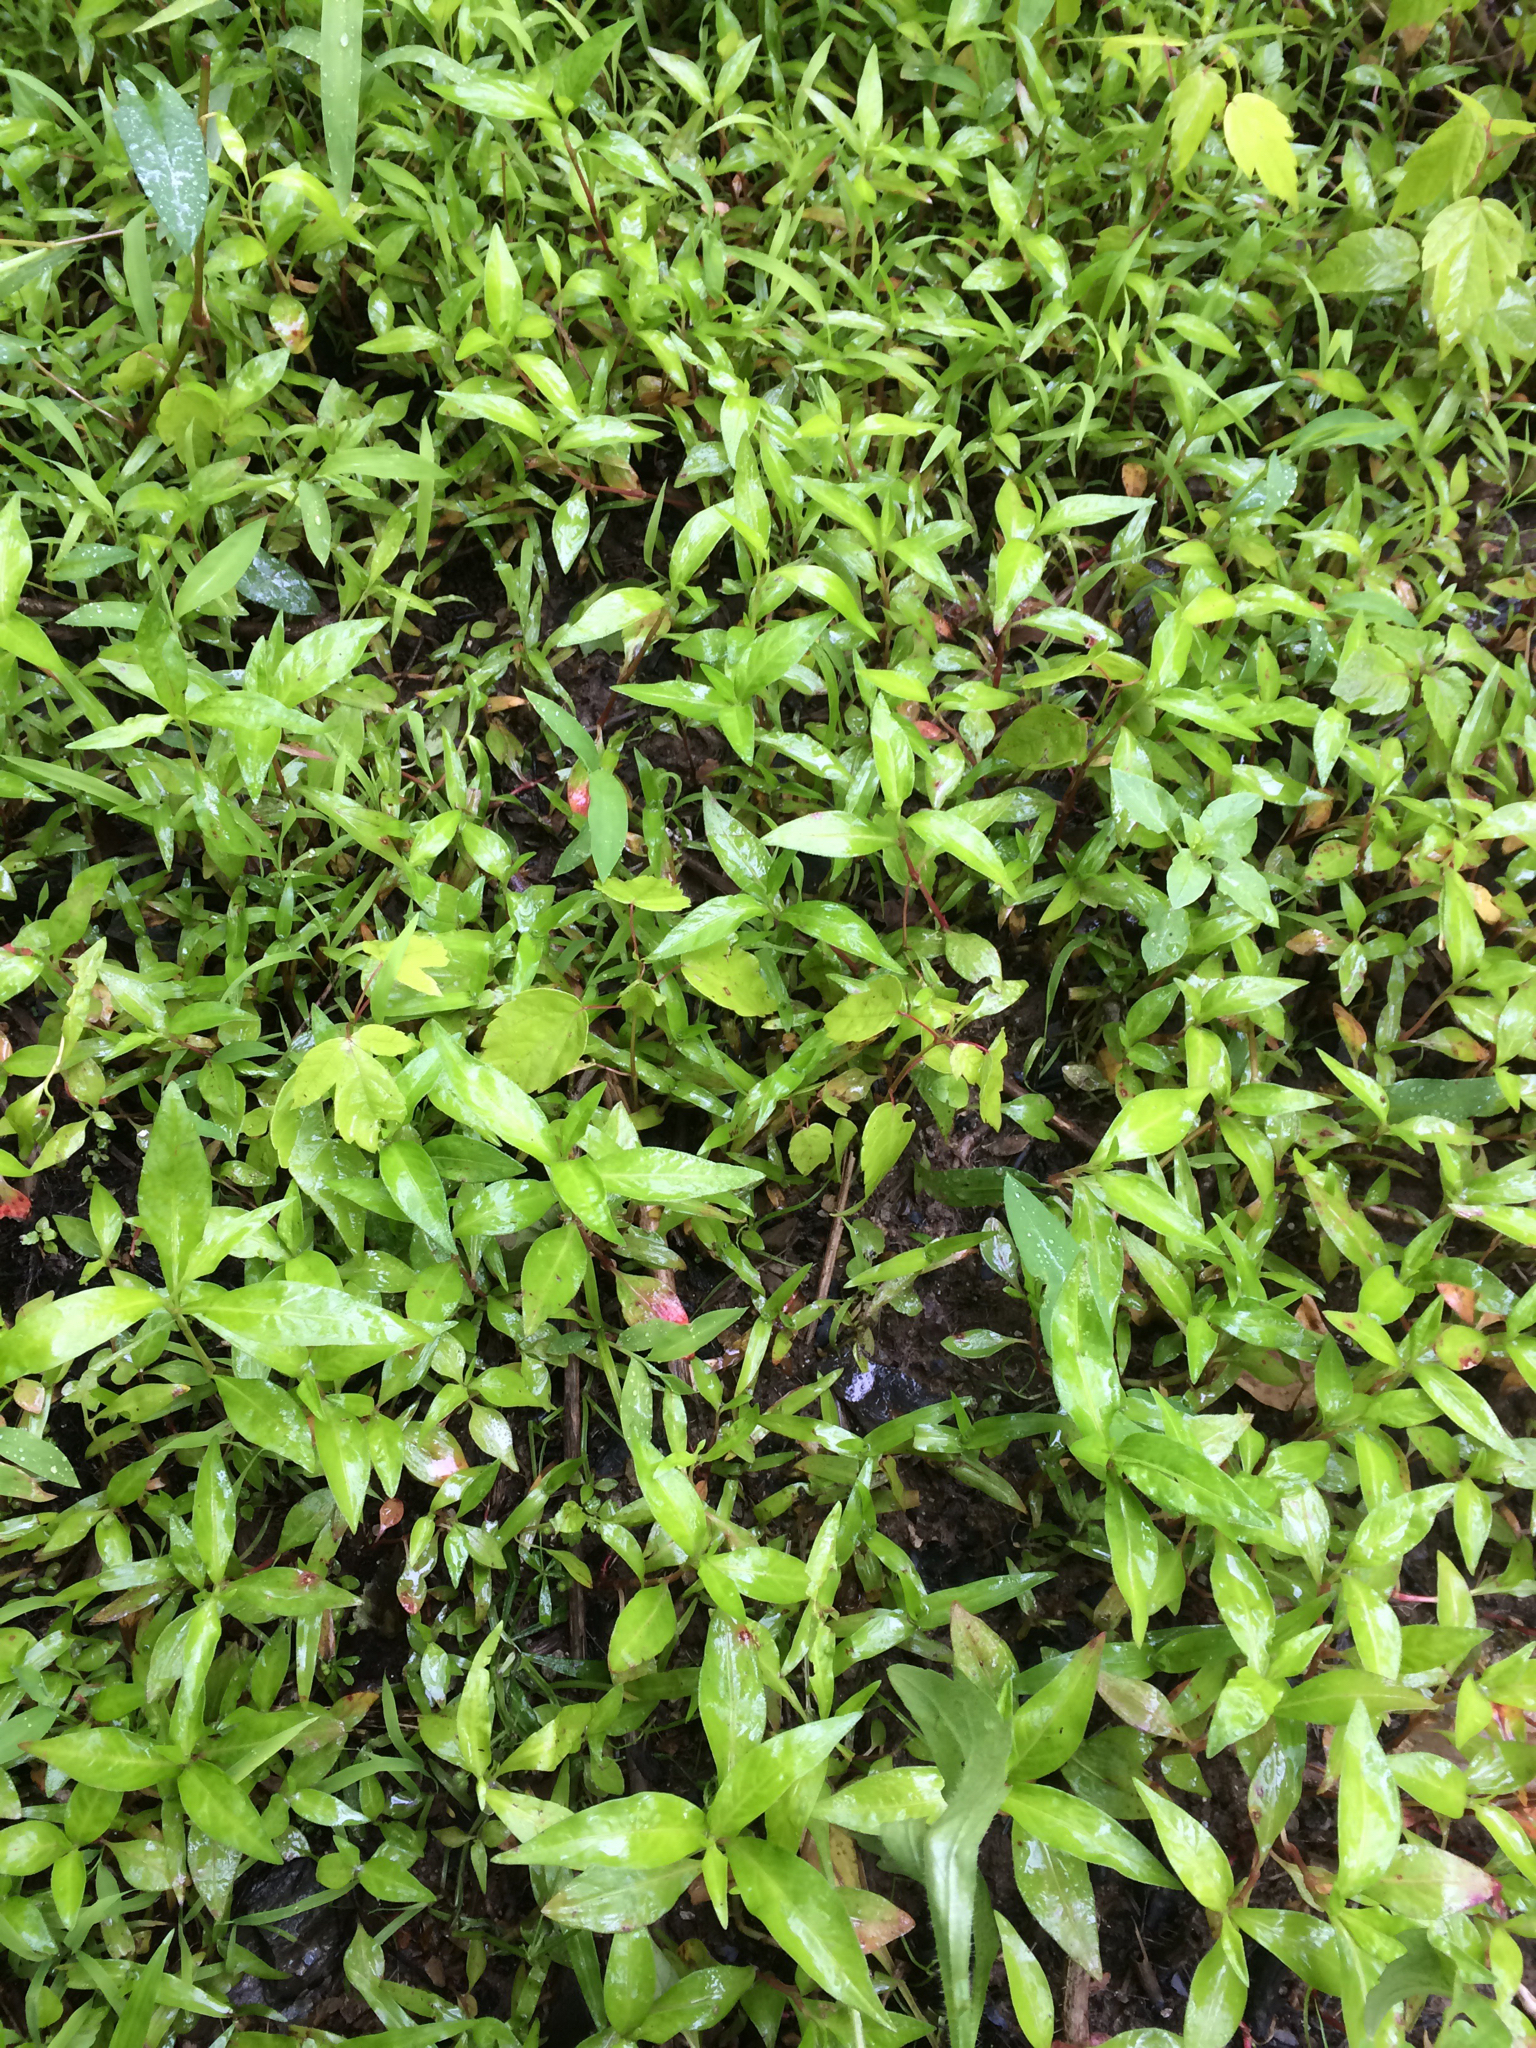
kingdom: Plantae
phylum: Tracheophyta
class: Magnoliopsida
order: Caryophyllales
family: Polygonaceae
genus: Persicaria
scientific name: Persicaria longiseta
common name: Bristly lady's-thumb
